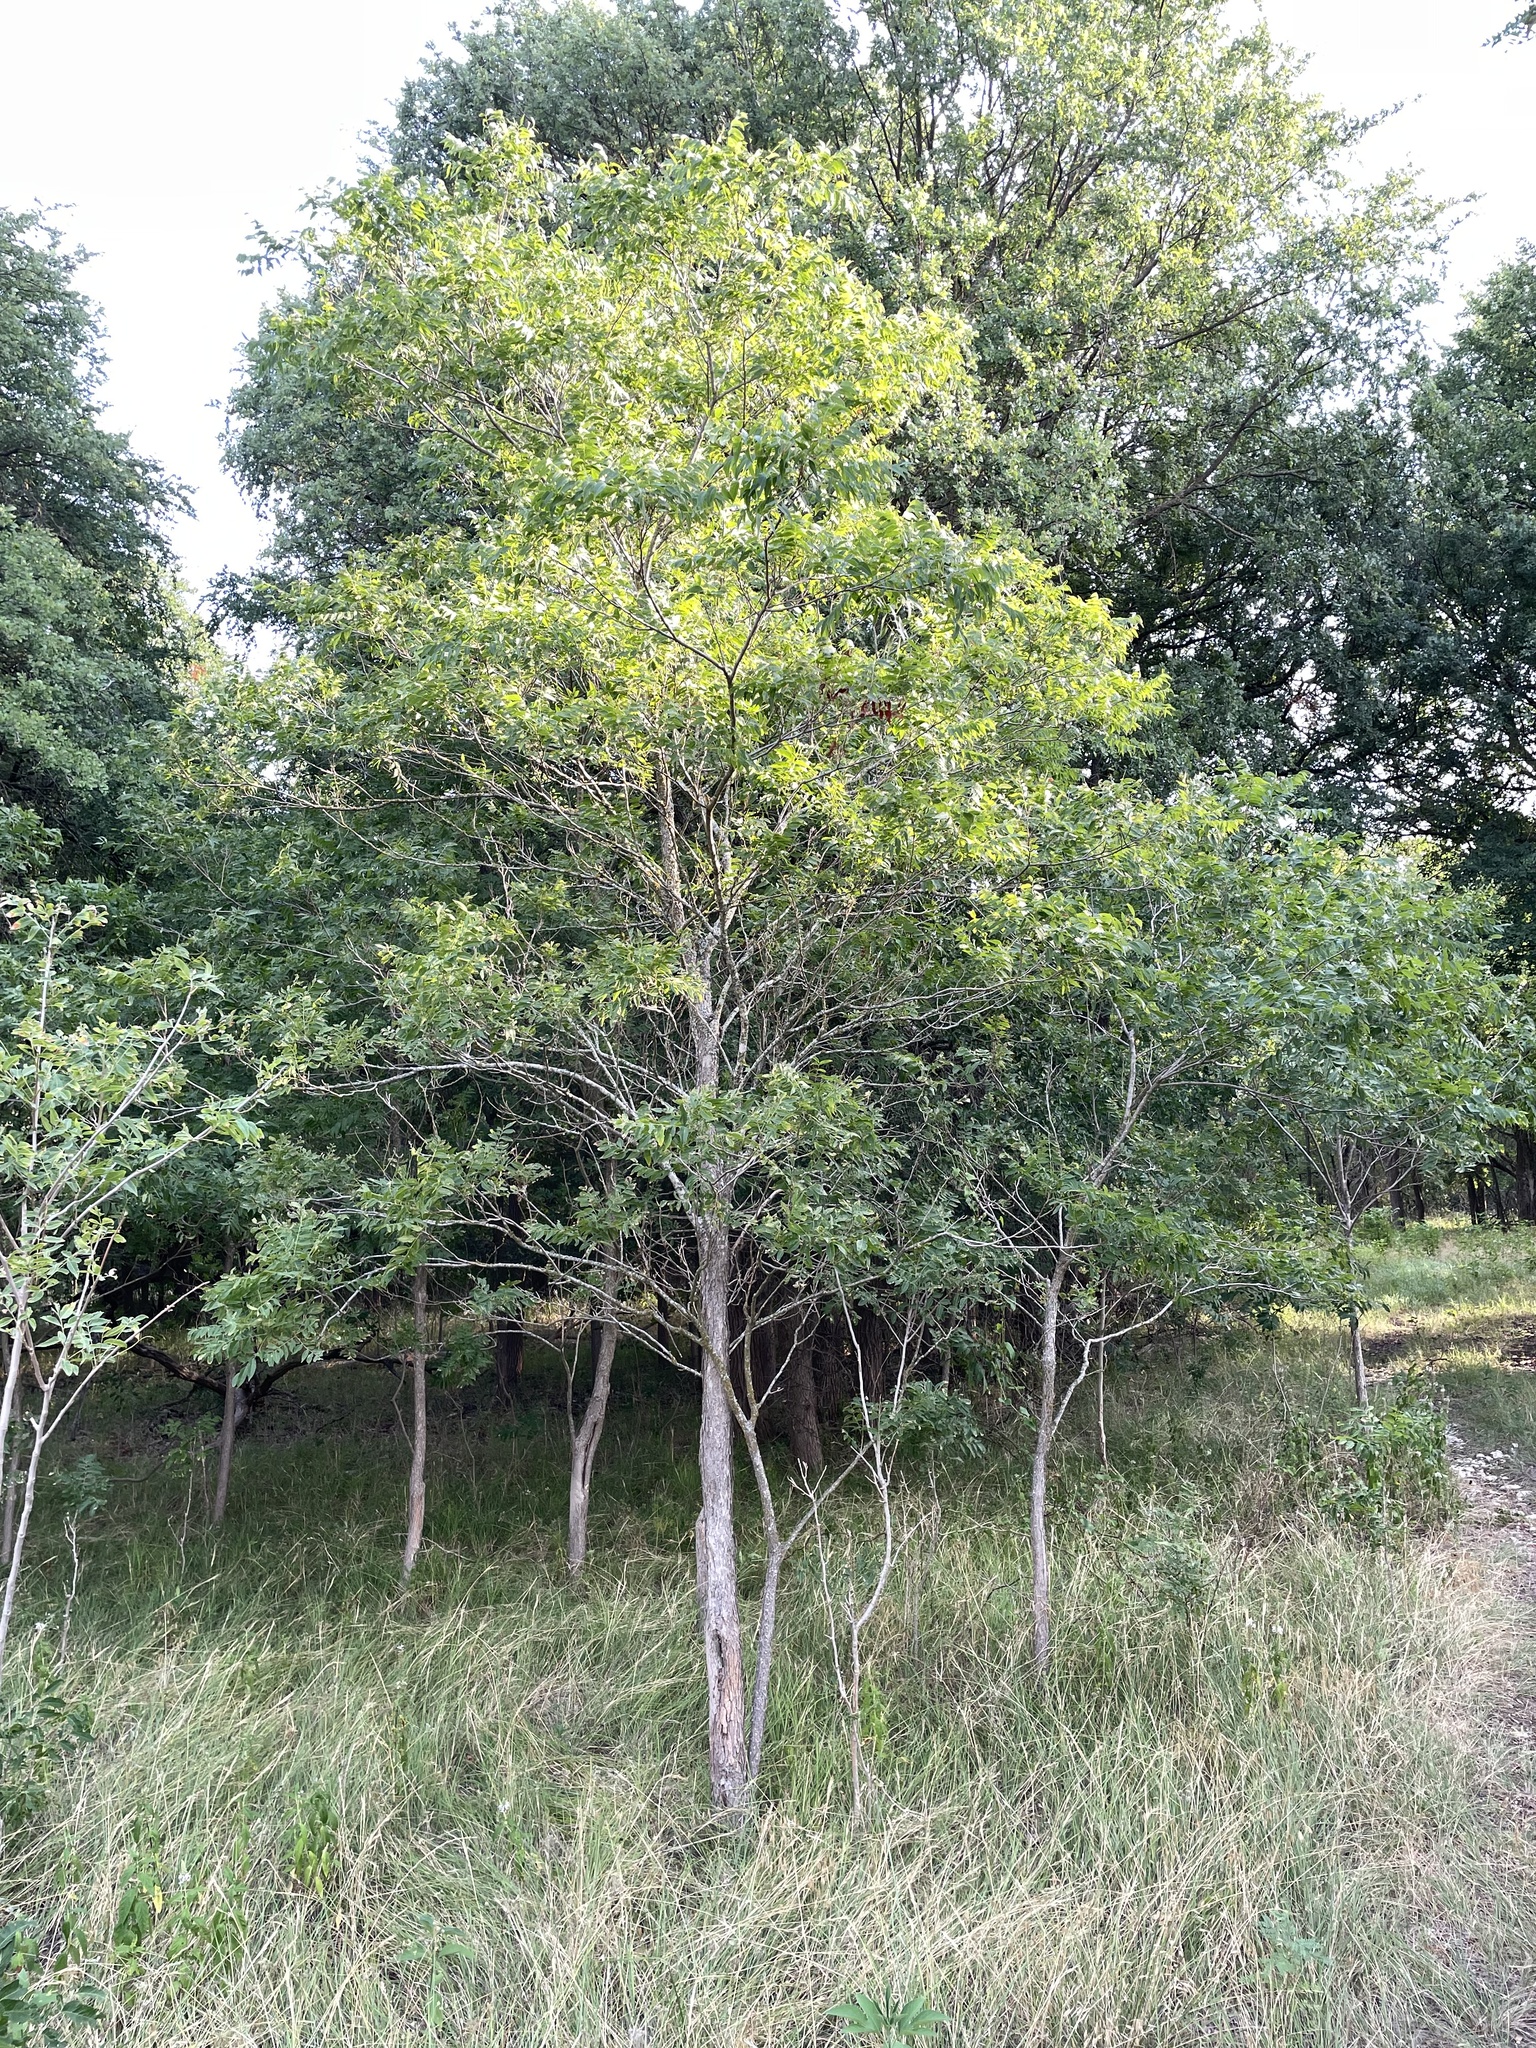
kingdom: Plantae
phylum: Tracheophyta
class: Magnoliopsida
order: Sapindales
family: Sapindaceae
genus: Sapindus
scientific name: Sapindus drummondii
